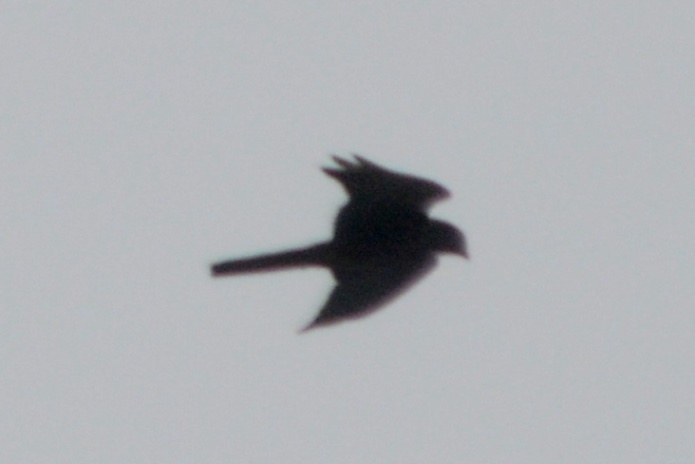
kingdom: Animalia
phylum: Chordata
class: Aves
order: Falconiformes
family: Falconidae
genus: Falco
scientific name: Falco novaeseelandiae
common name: New zealand falcon
